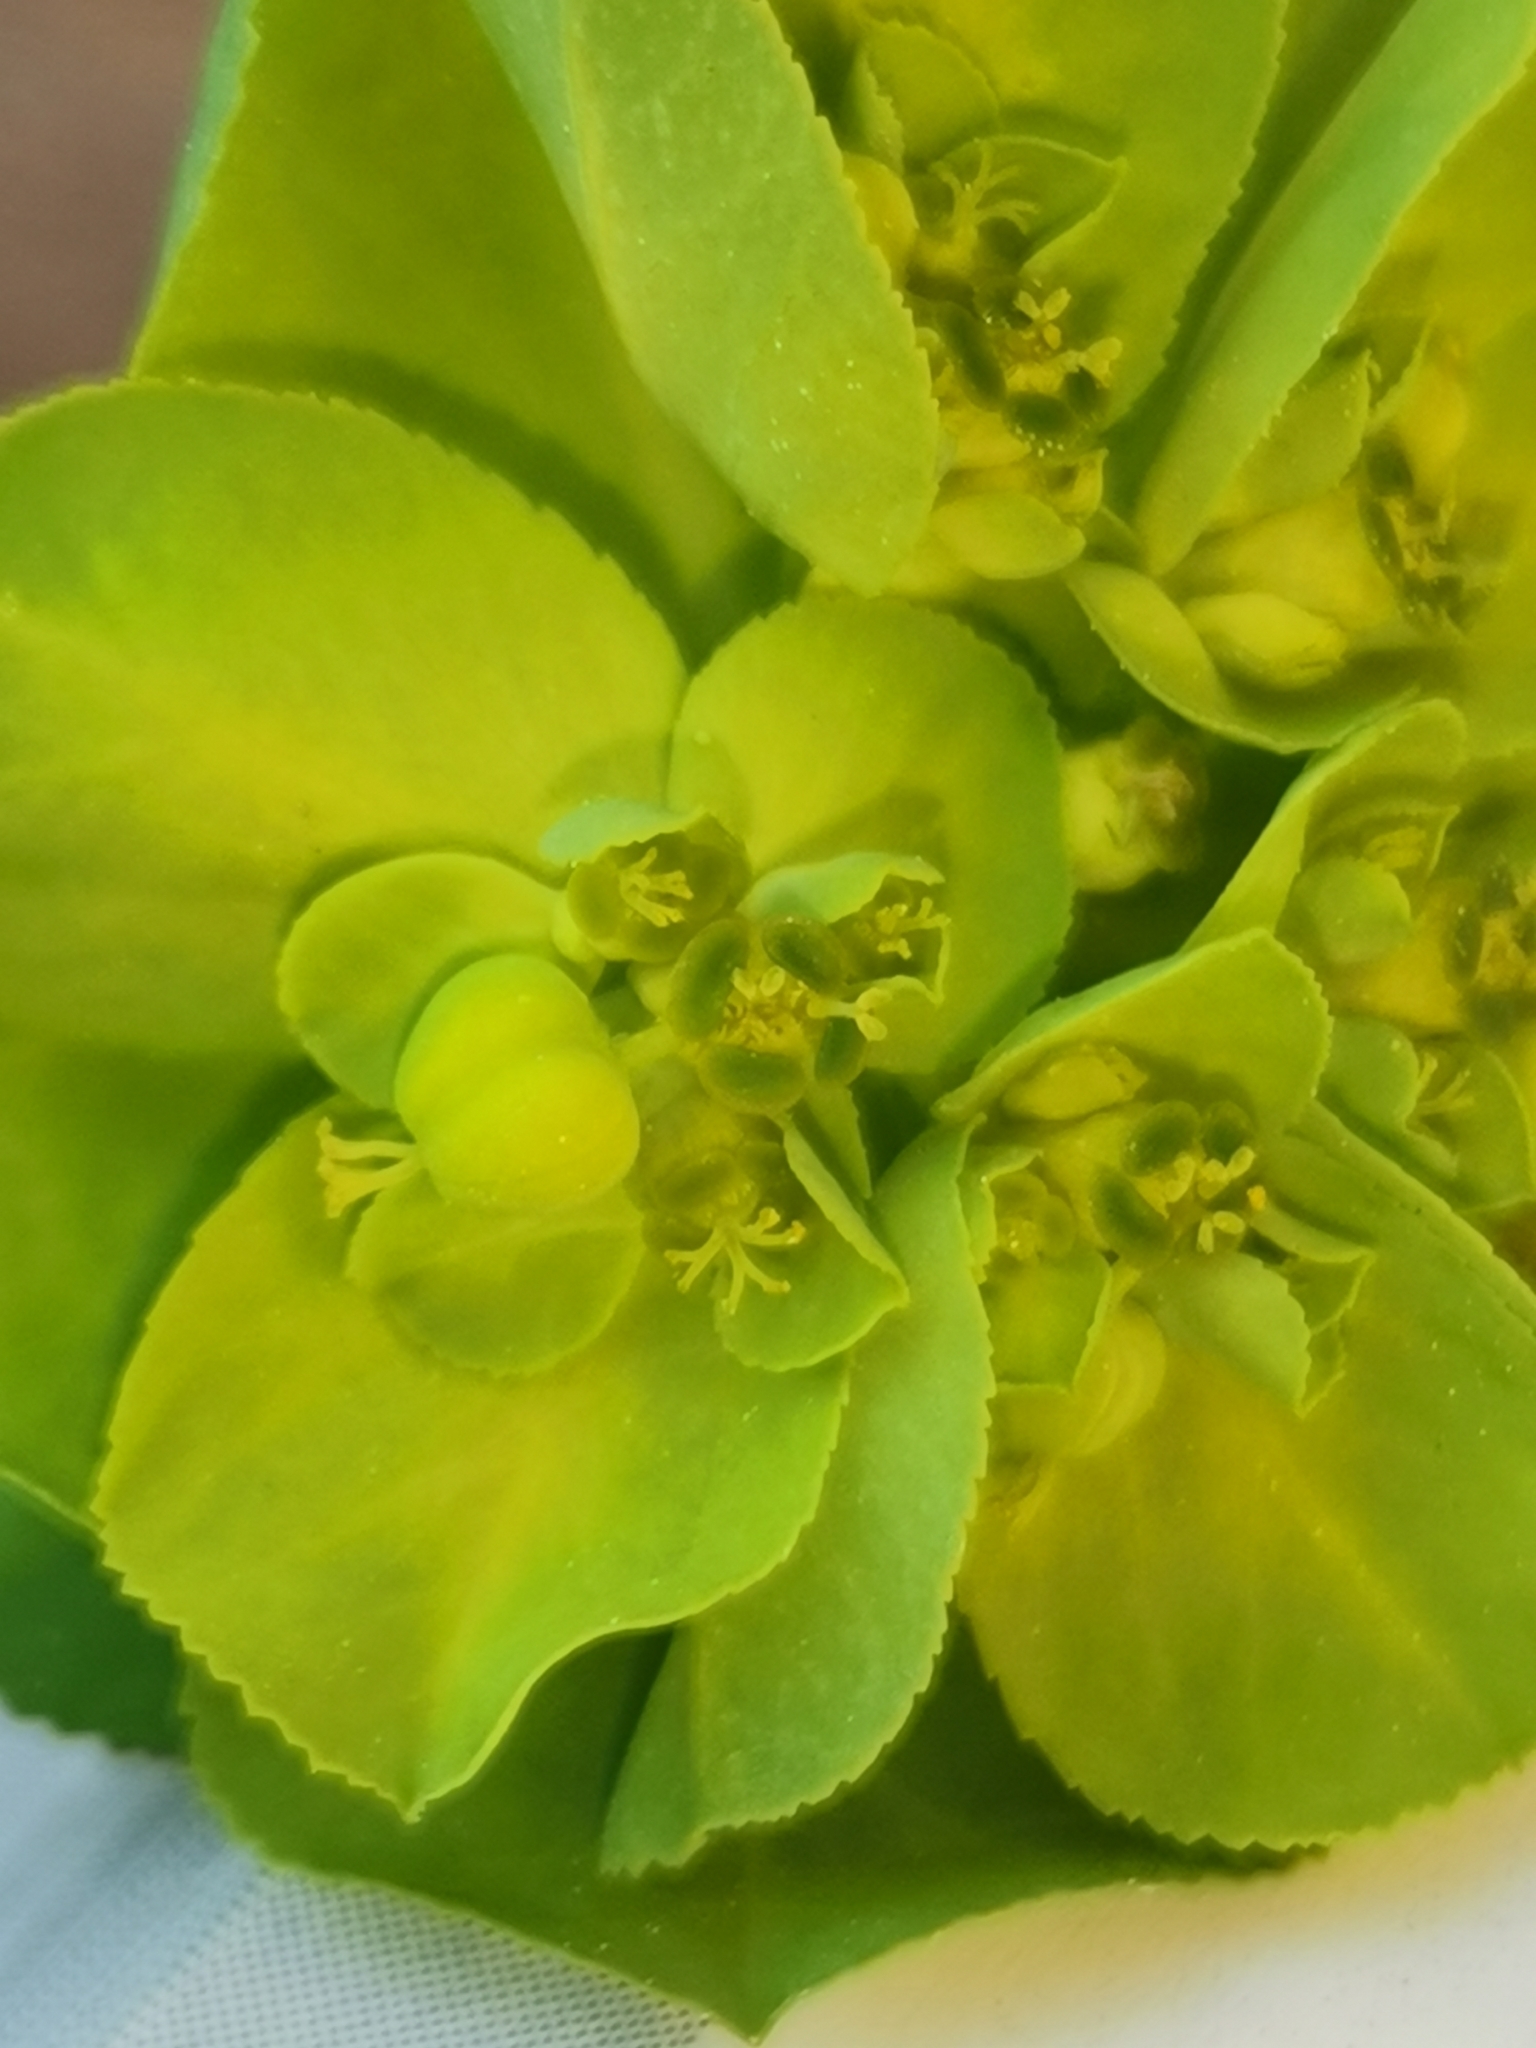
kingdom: Plantae
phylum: Tracheophyta
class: Magnoliopsida
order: Malpighiales
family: Euphorbiaceae
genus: Euphorbia
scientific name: Euphorbia helioscopia
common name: Sun spurge
